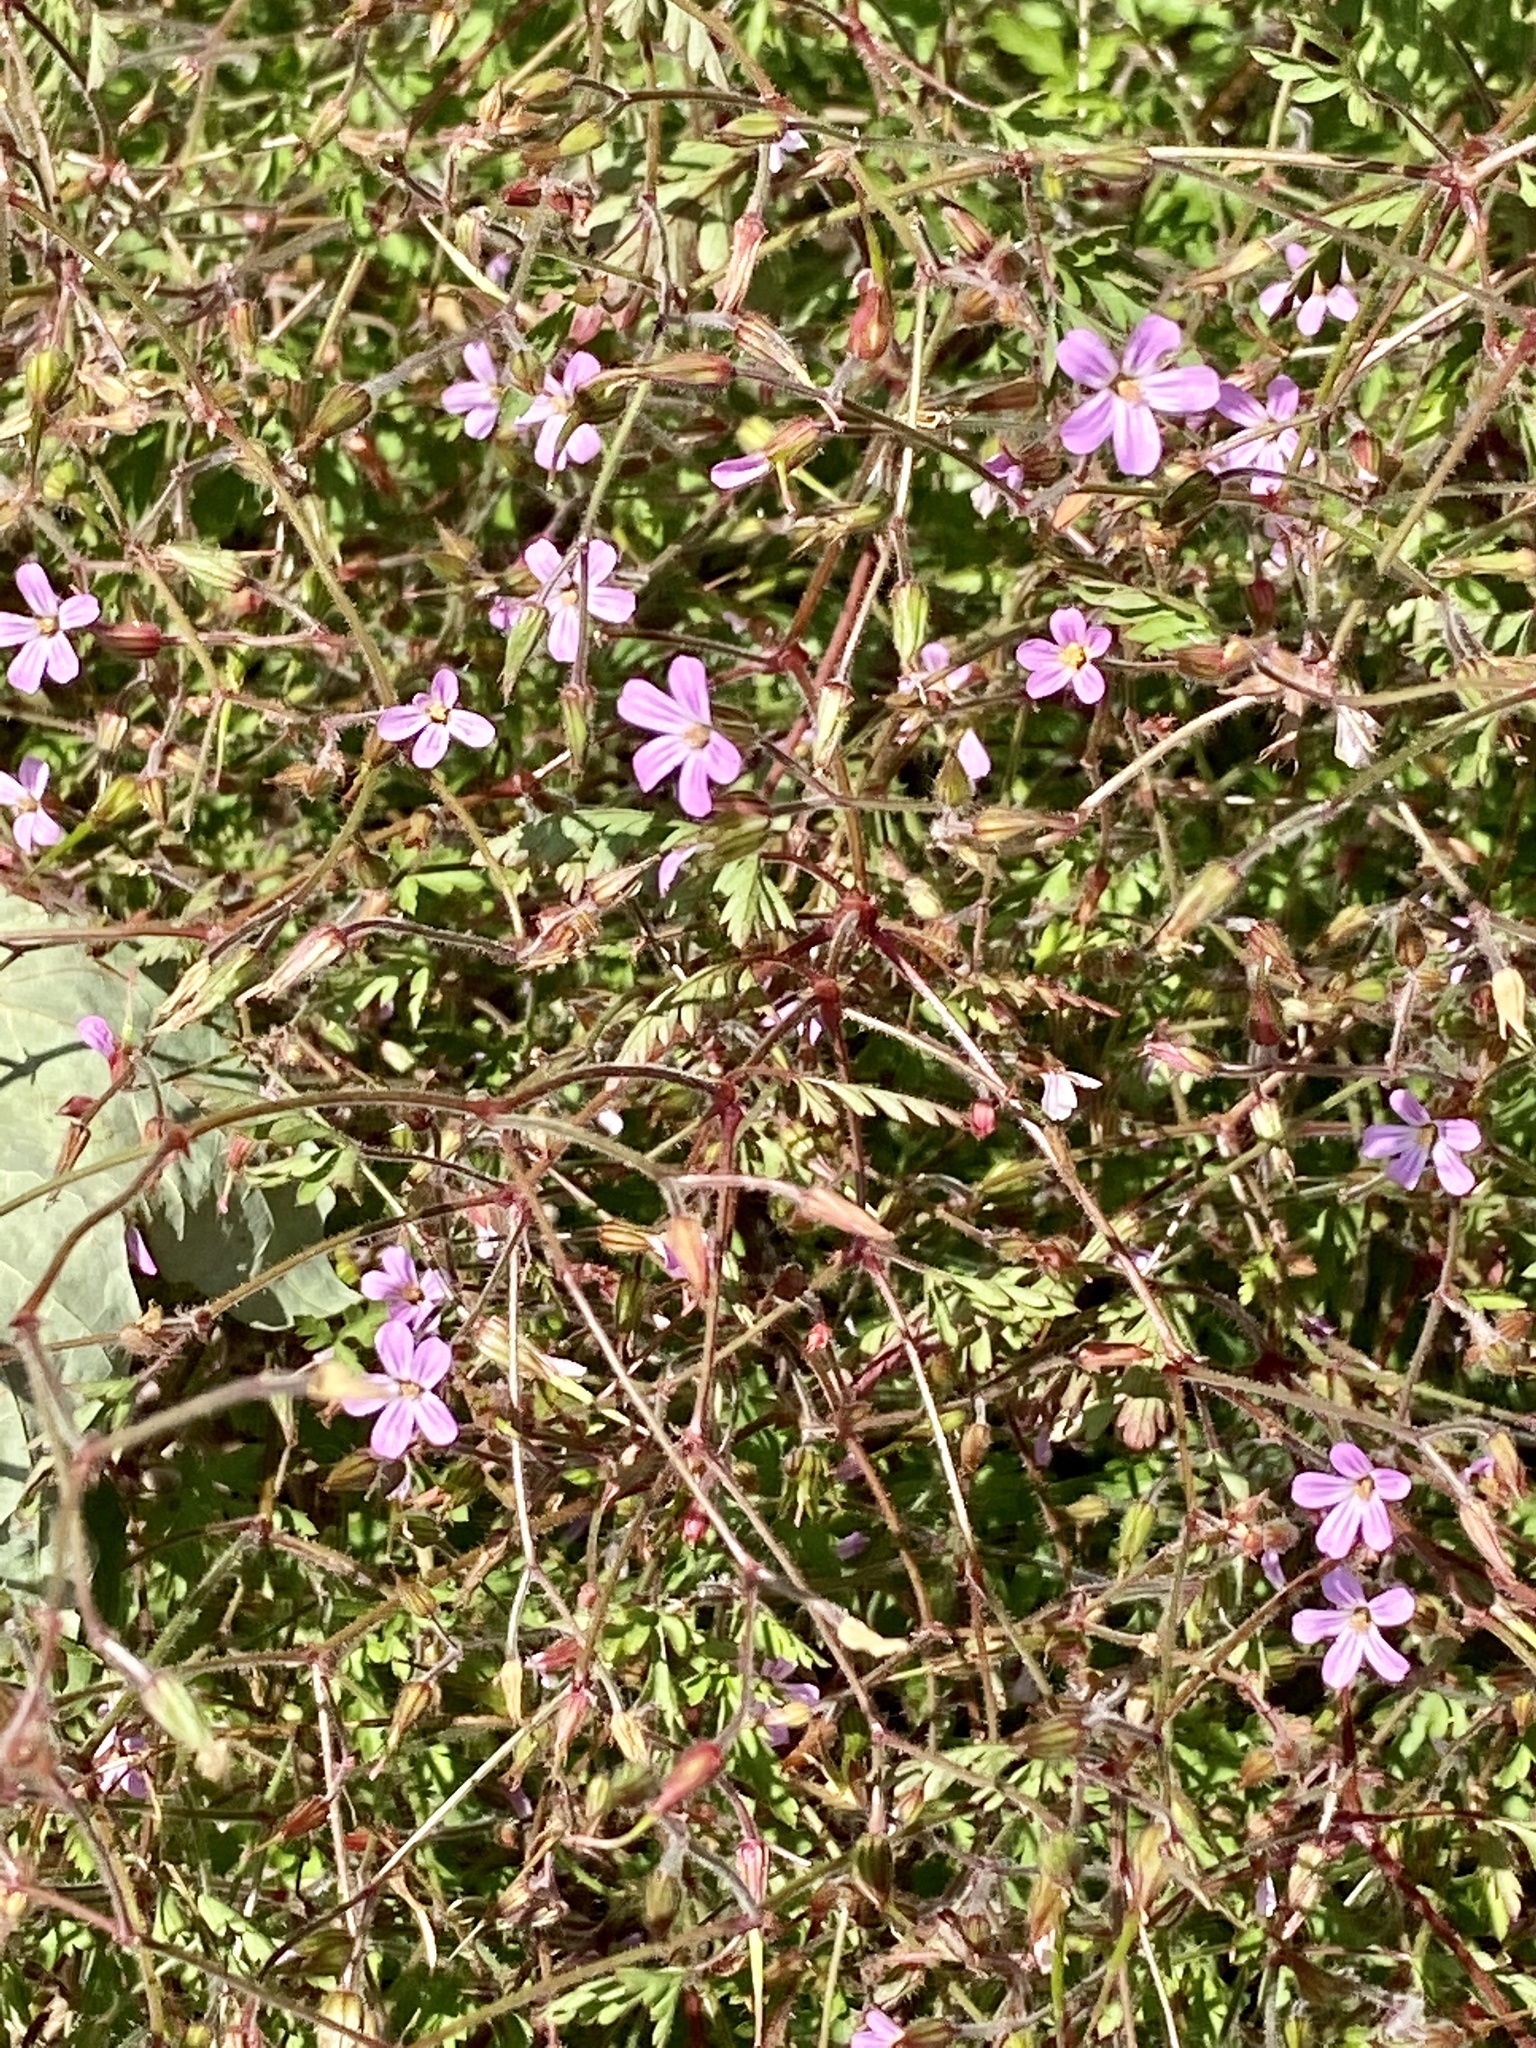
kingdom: Plantae
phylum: Tracheophyta
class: Magnoliopsida
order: Geraniales
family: Geraniaceae
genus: Geranium
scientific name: Geranium robertianum
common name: Herb-robert
